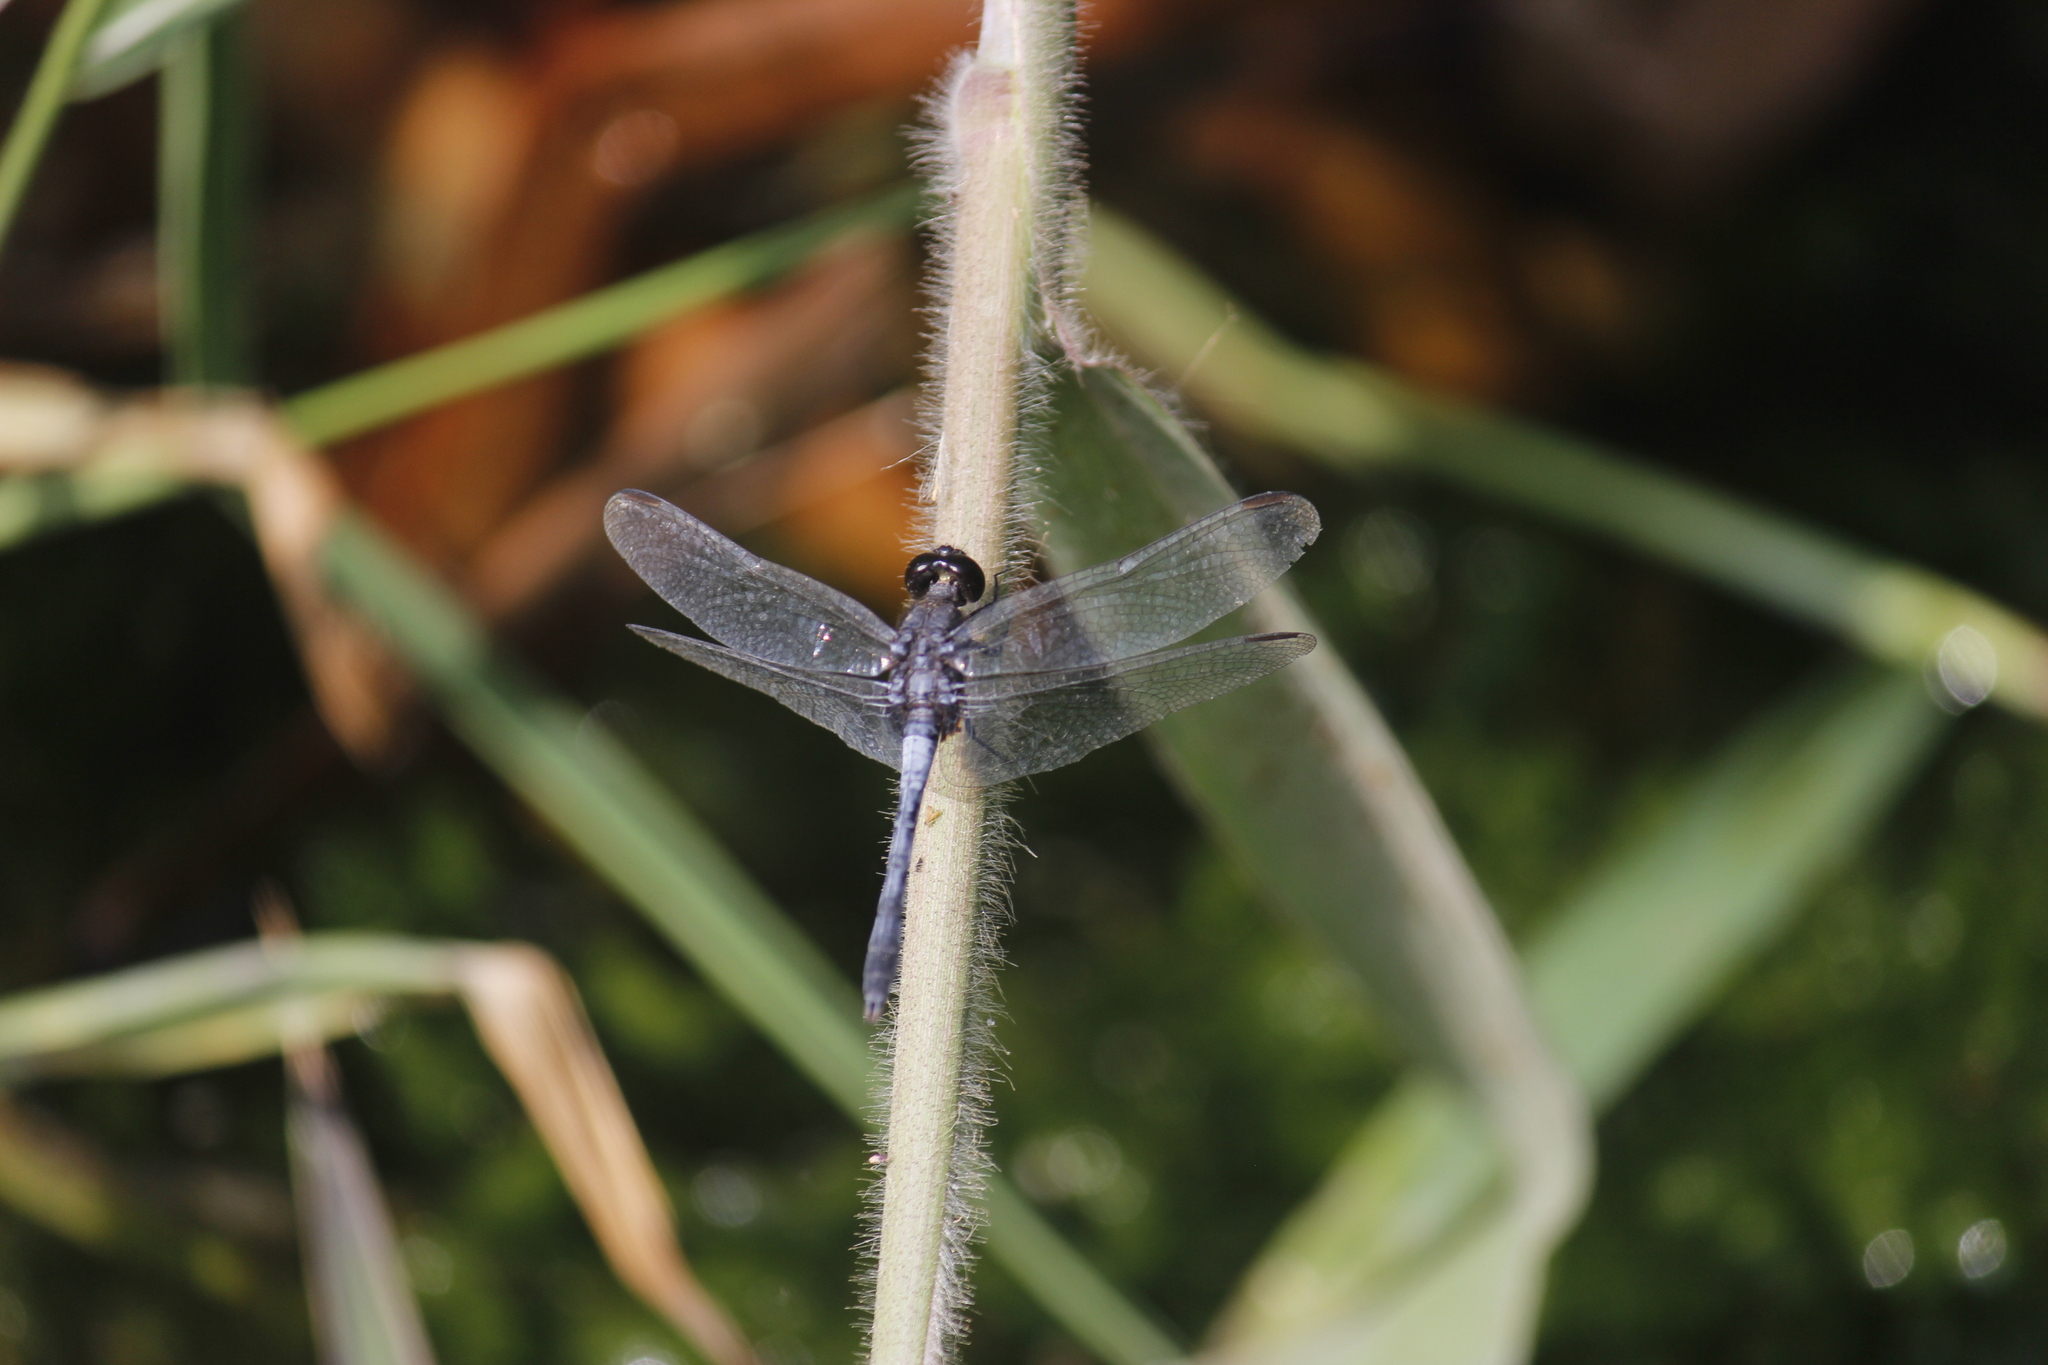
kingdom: Animalia
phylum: Arthropoda
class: Insecta
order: Odonata
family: Libellulidae
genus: Erythrodiplax
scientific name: Erythrodiplax cleopatra
